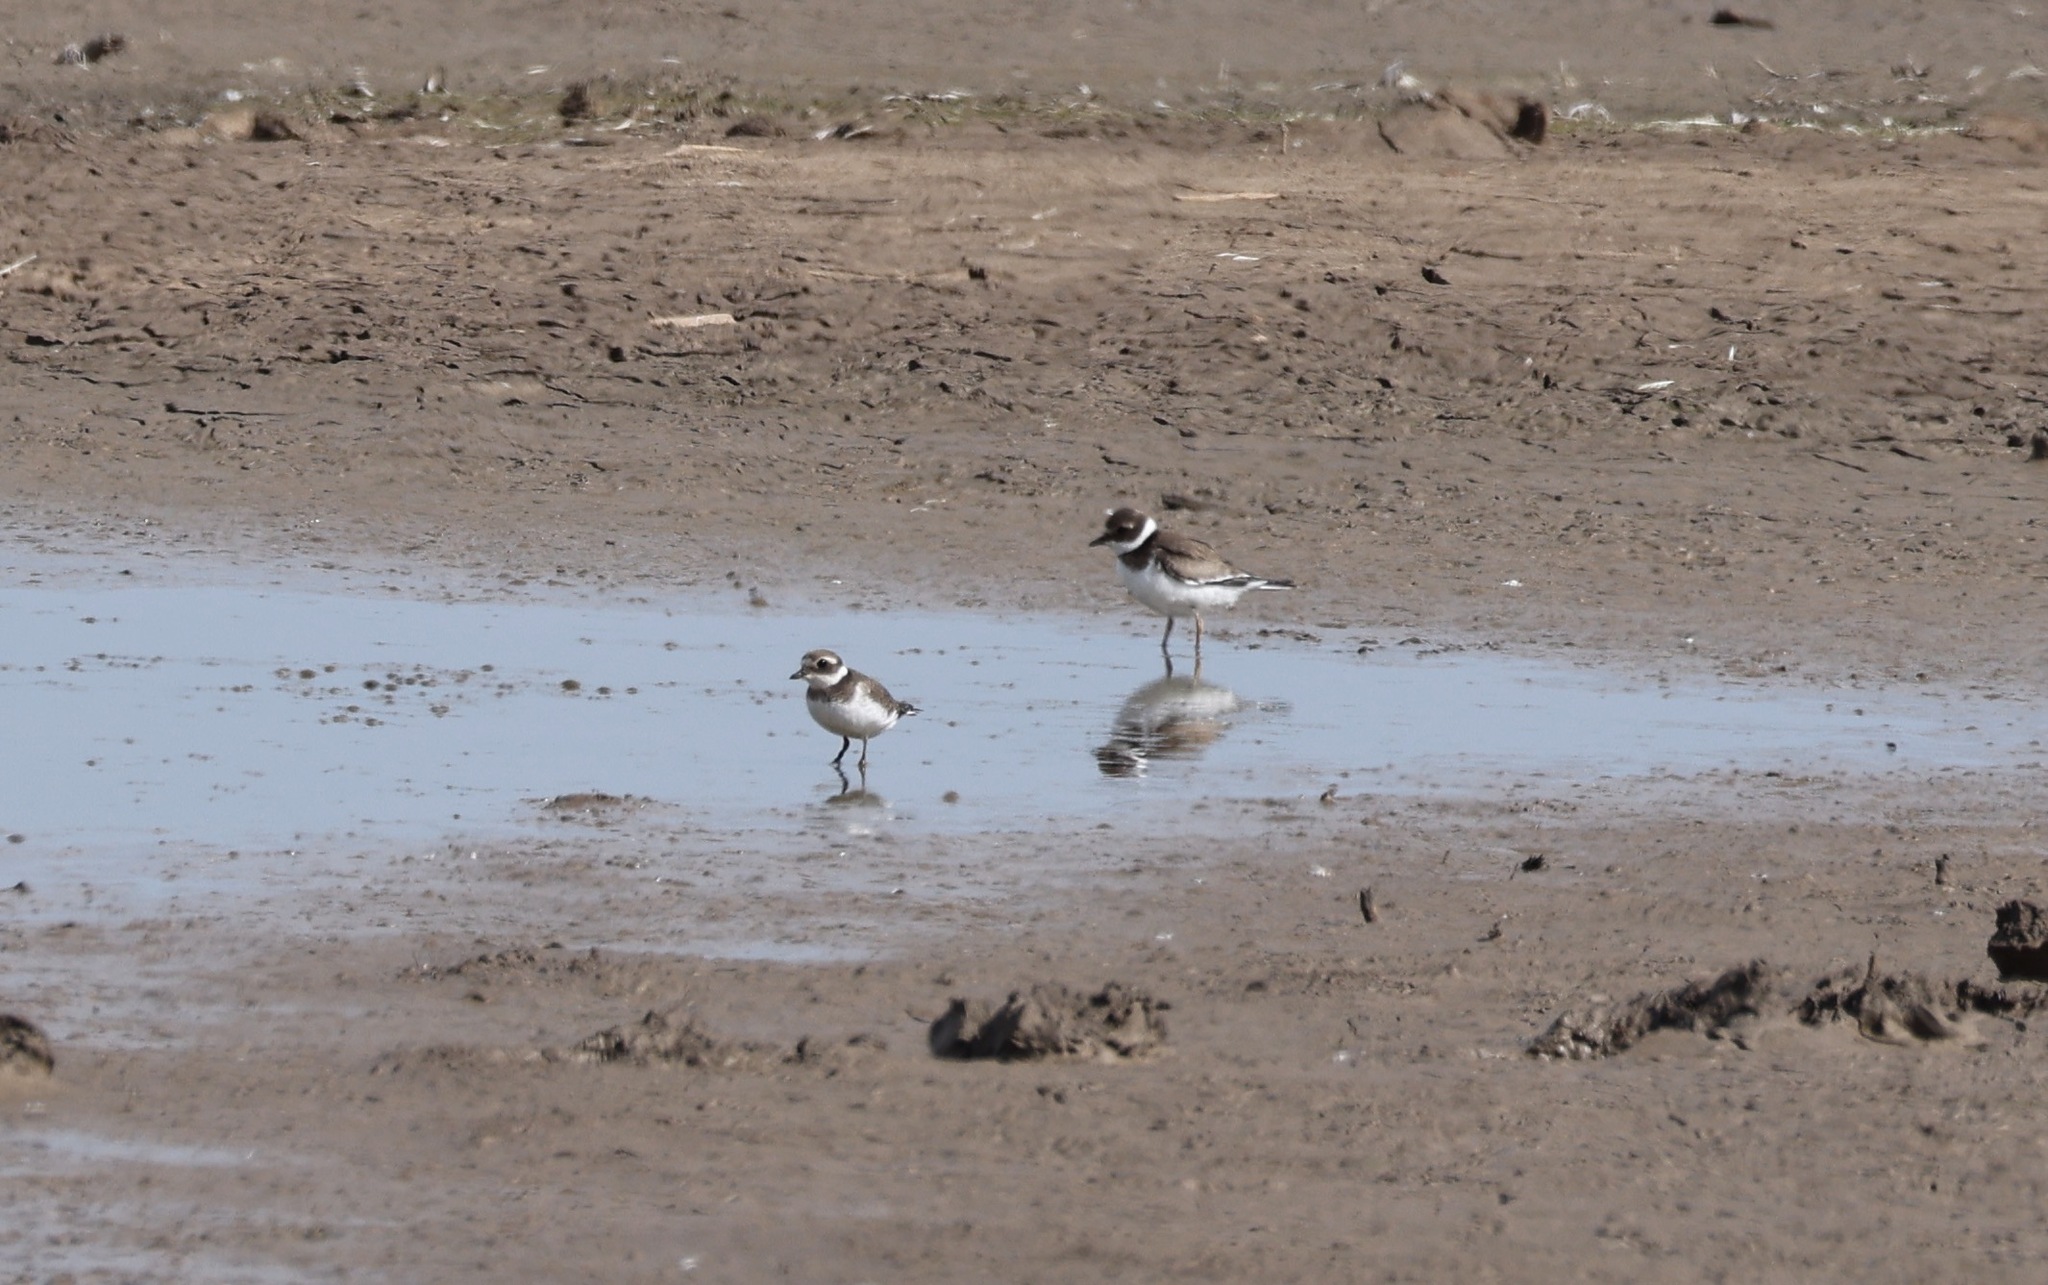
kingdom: Animalia
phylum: Chordata
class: Aves
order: Charadriiformes
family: Charadriidae
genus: Charadrius
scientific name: Charadrius hiaticula
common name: Common ringed plover
